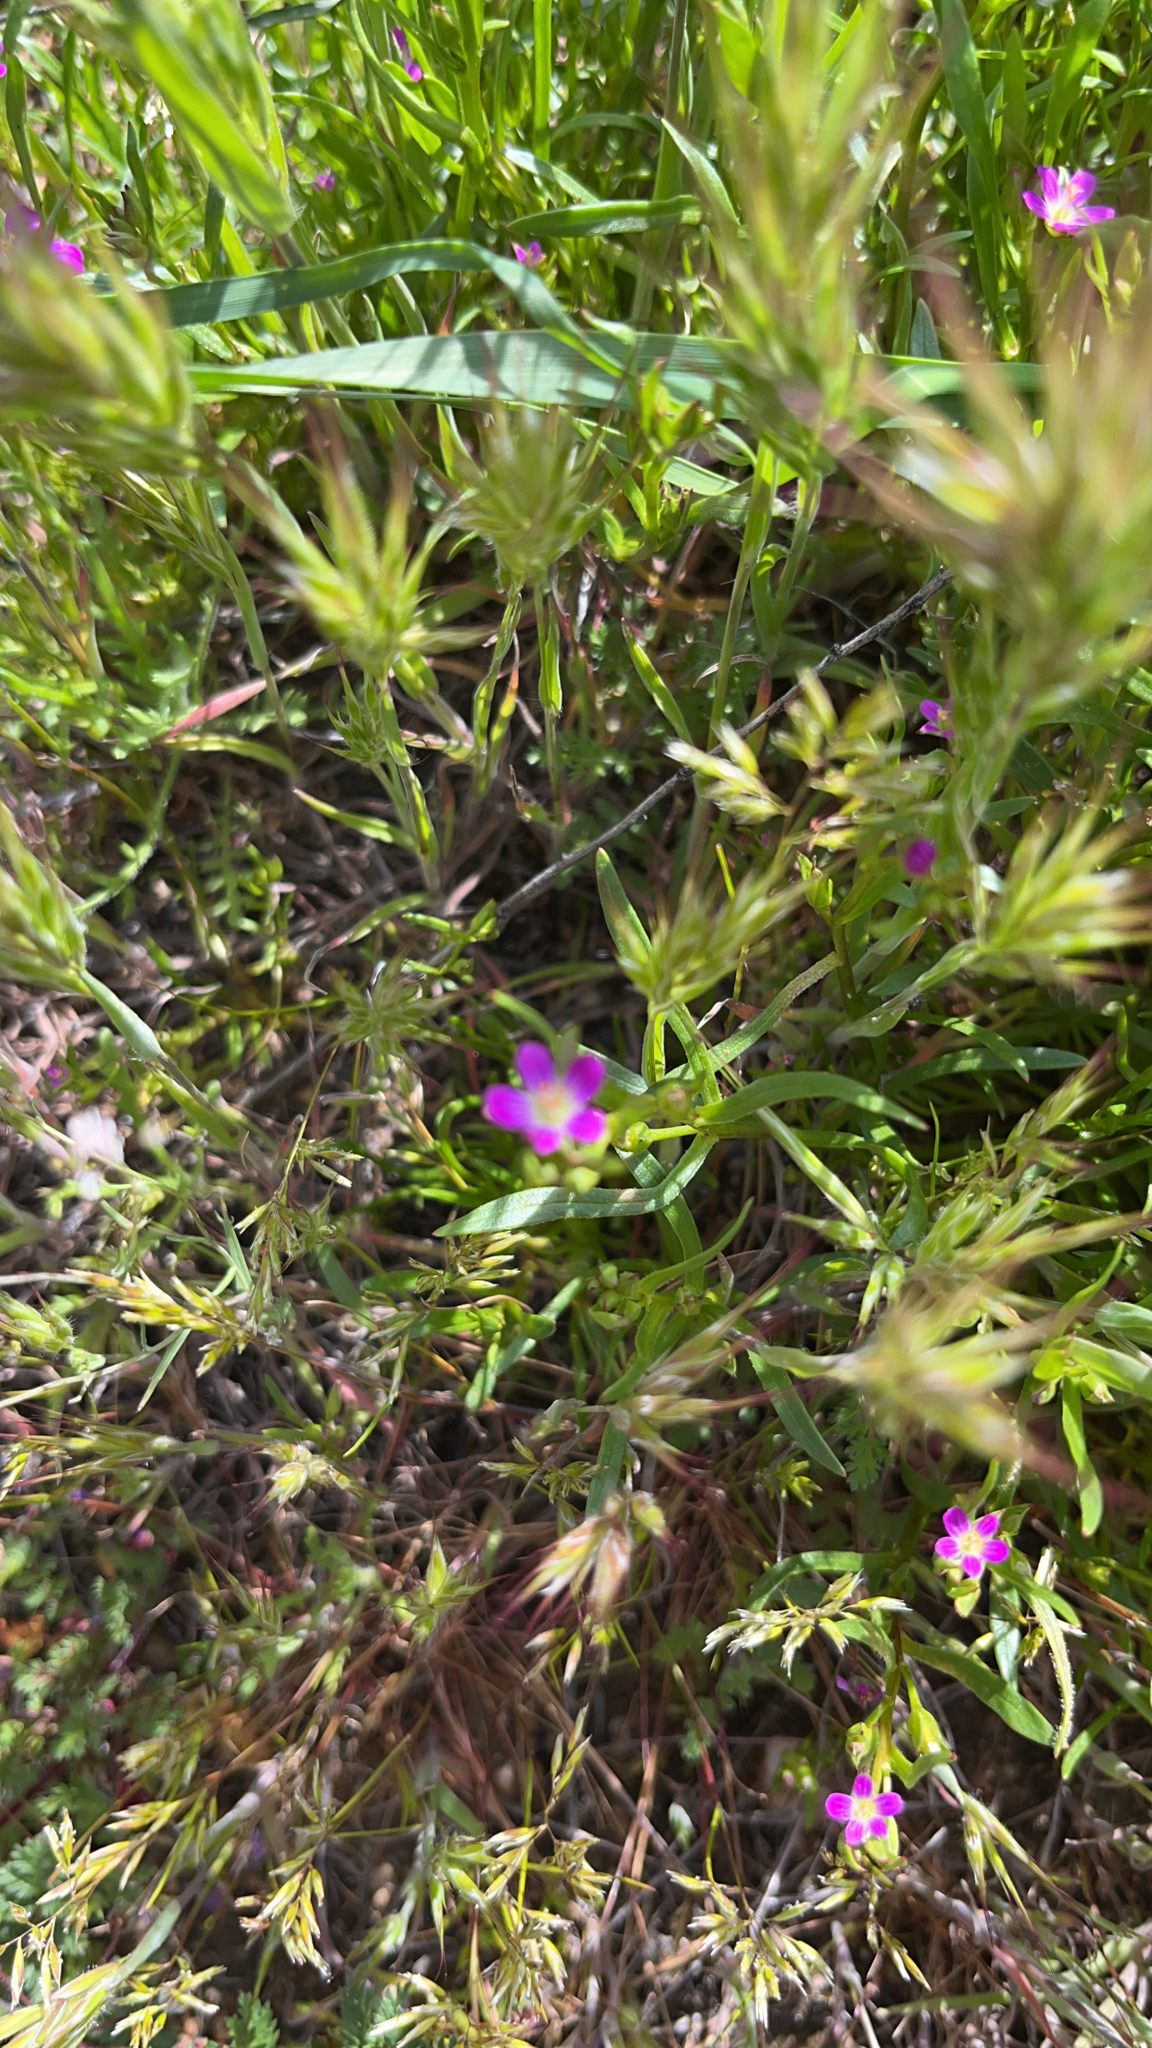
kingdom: Plantae
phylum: Tracheophyta
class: Magnoliopsida
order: Caryophyllales
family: Montiaceae
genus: Calandrinia
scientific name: Calandrinia menziesii
